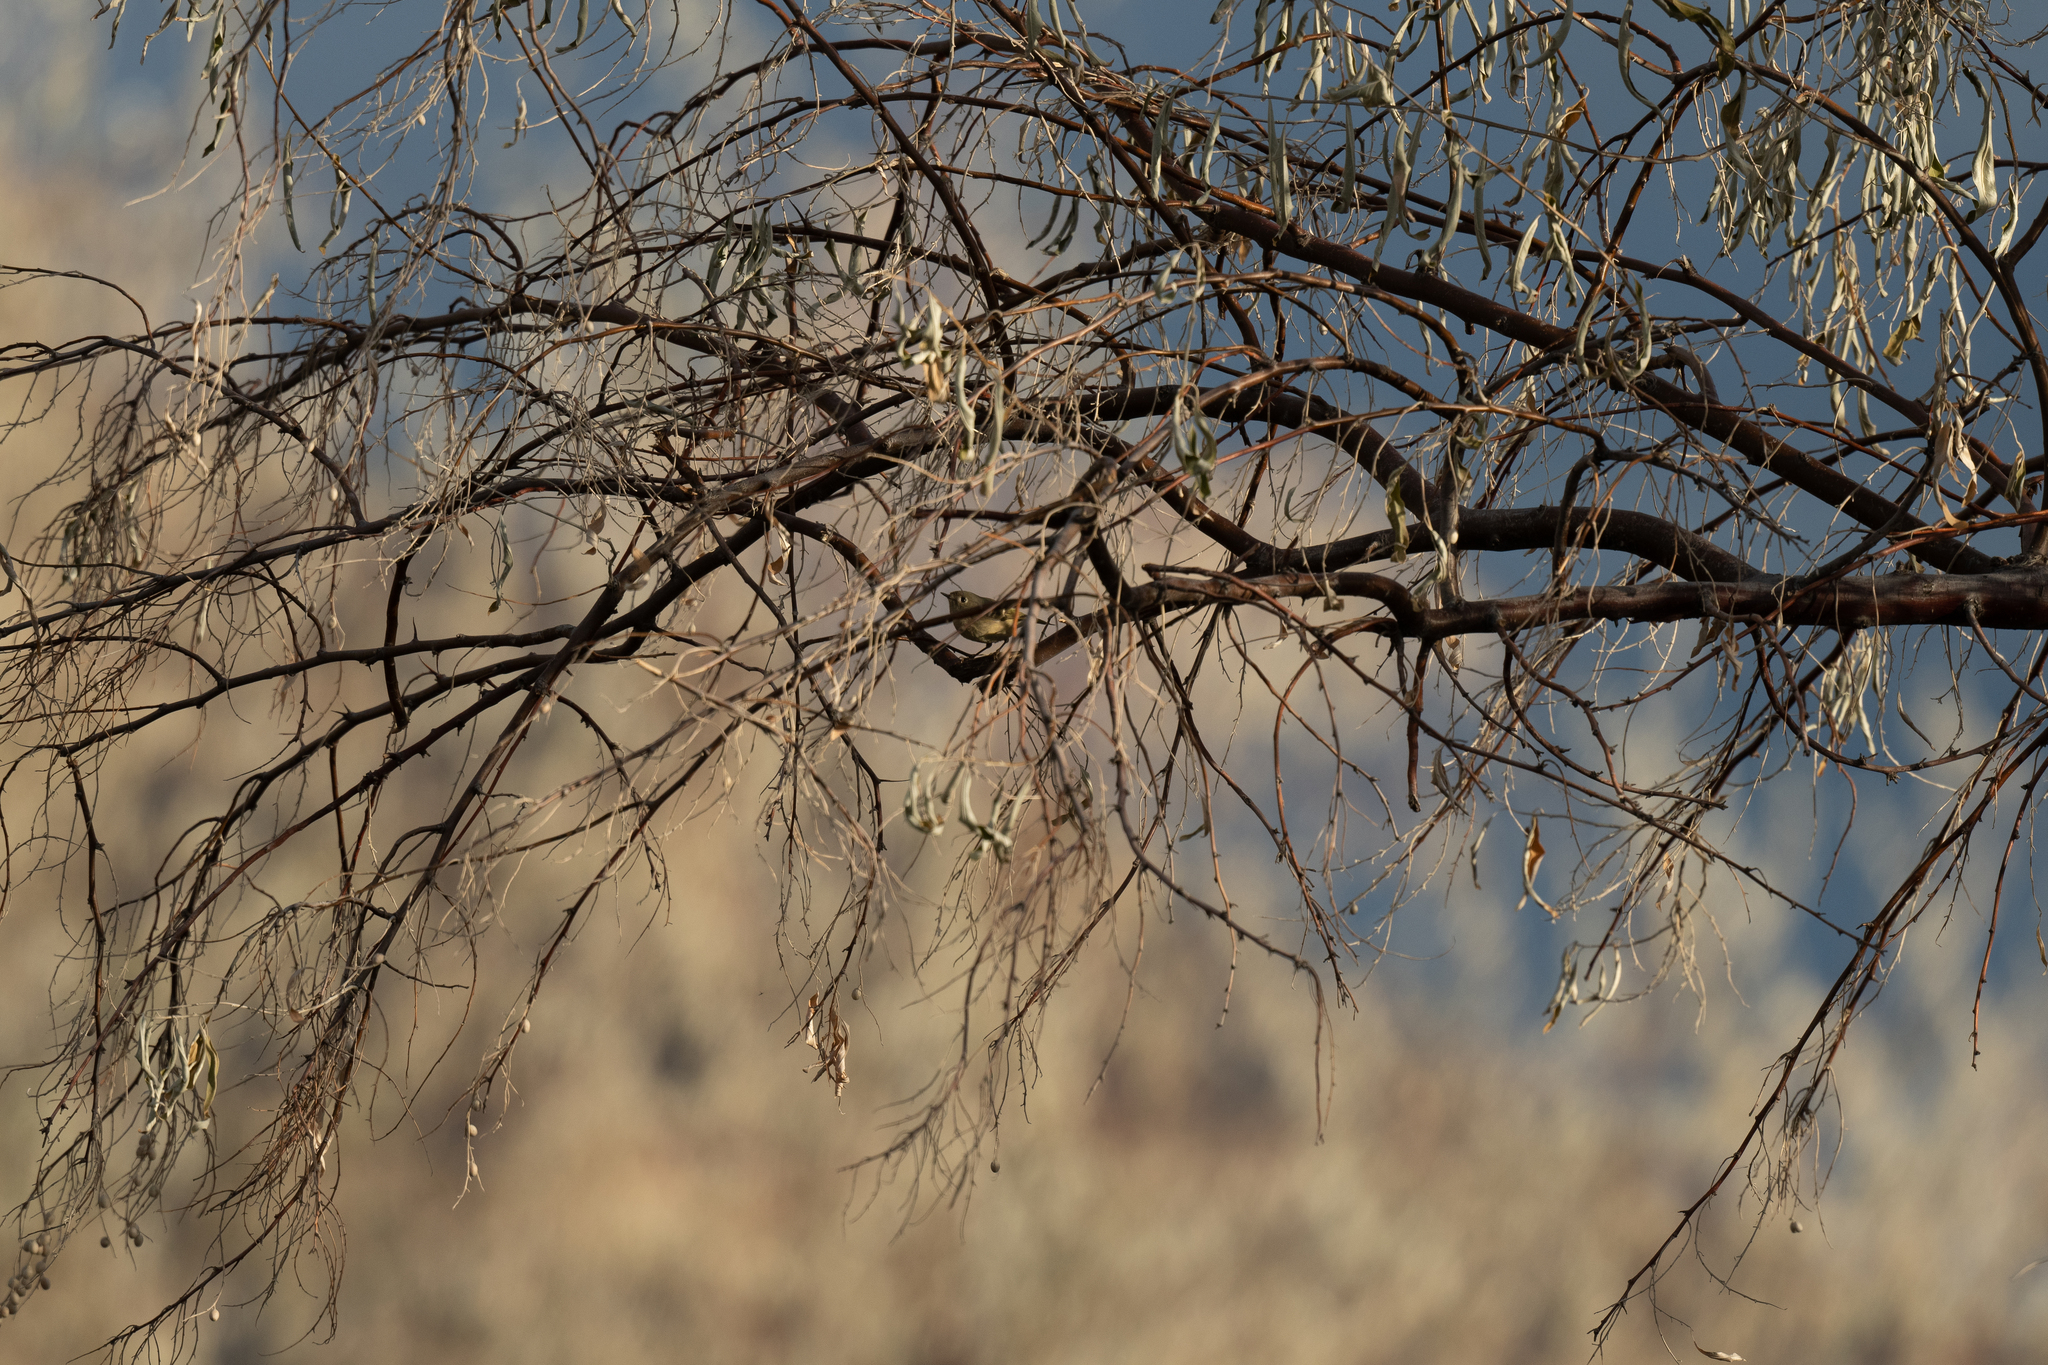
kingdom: Animalia
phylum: Chordata
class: Aves
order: Passeriformes
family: Regulidae
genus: Regulus
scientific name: Regulus calendula
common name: Ruby-crowned kinglet
